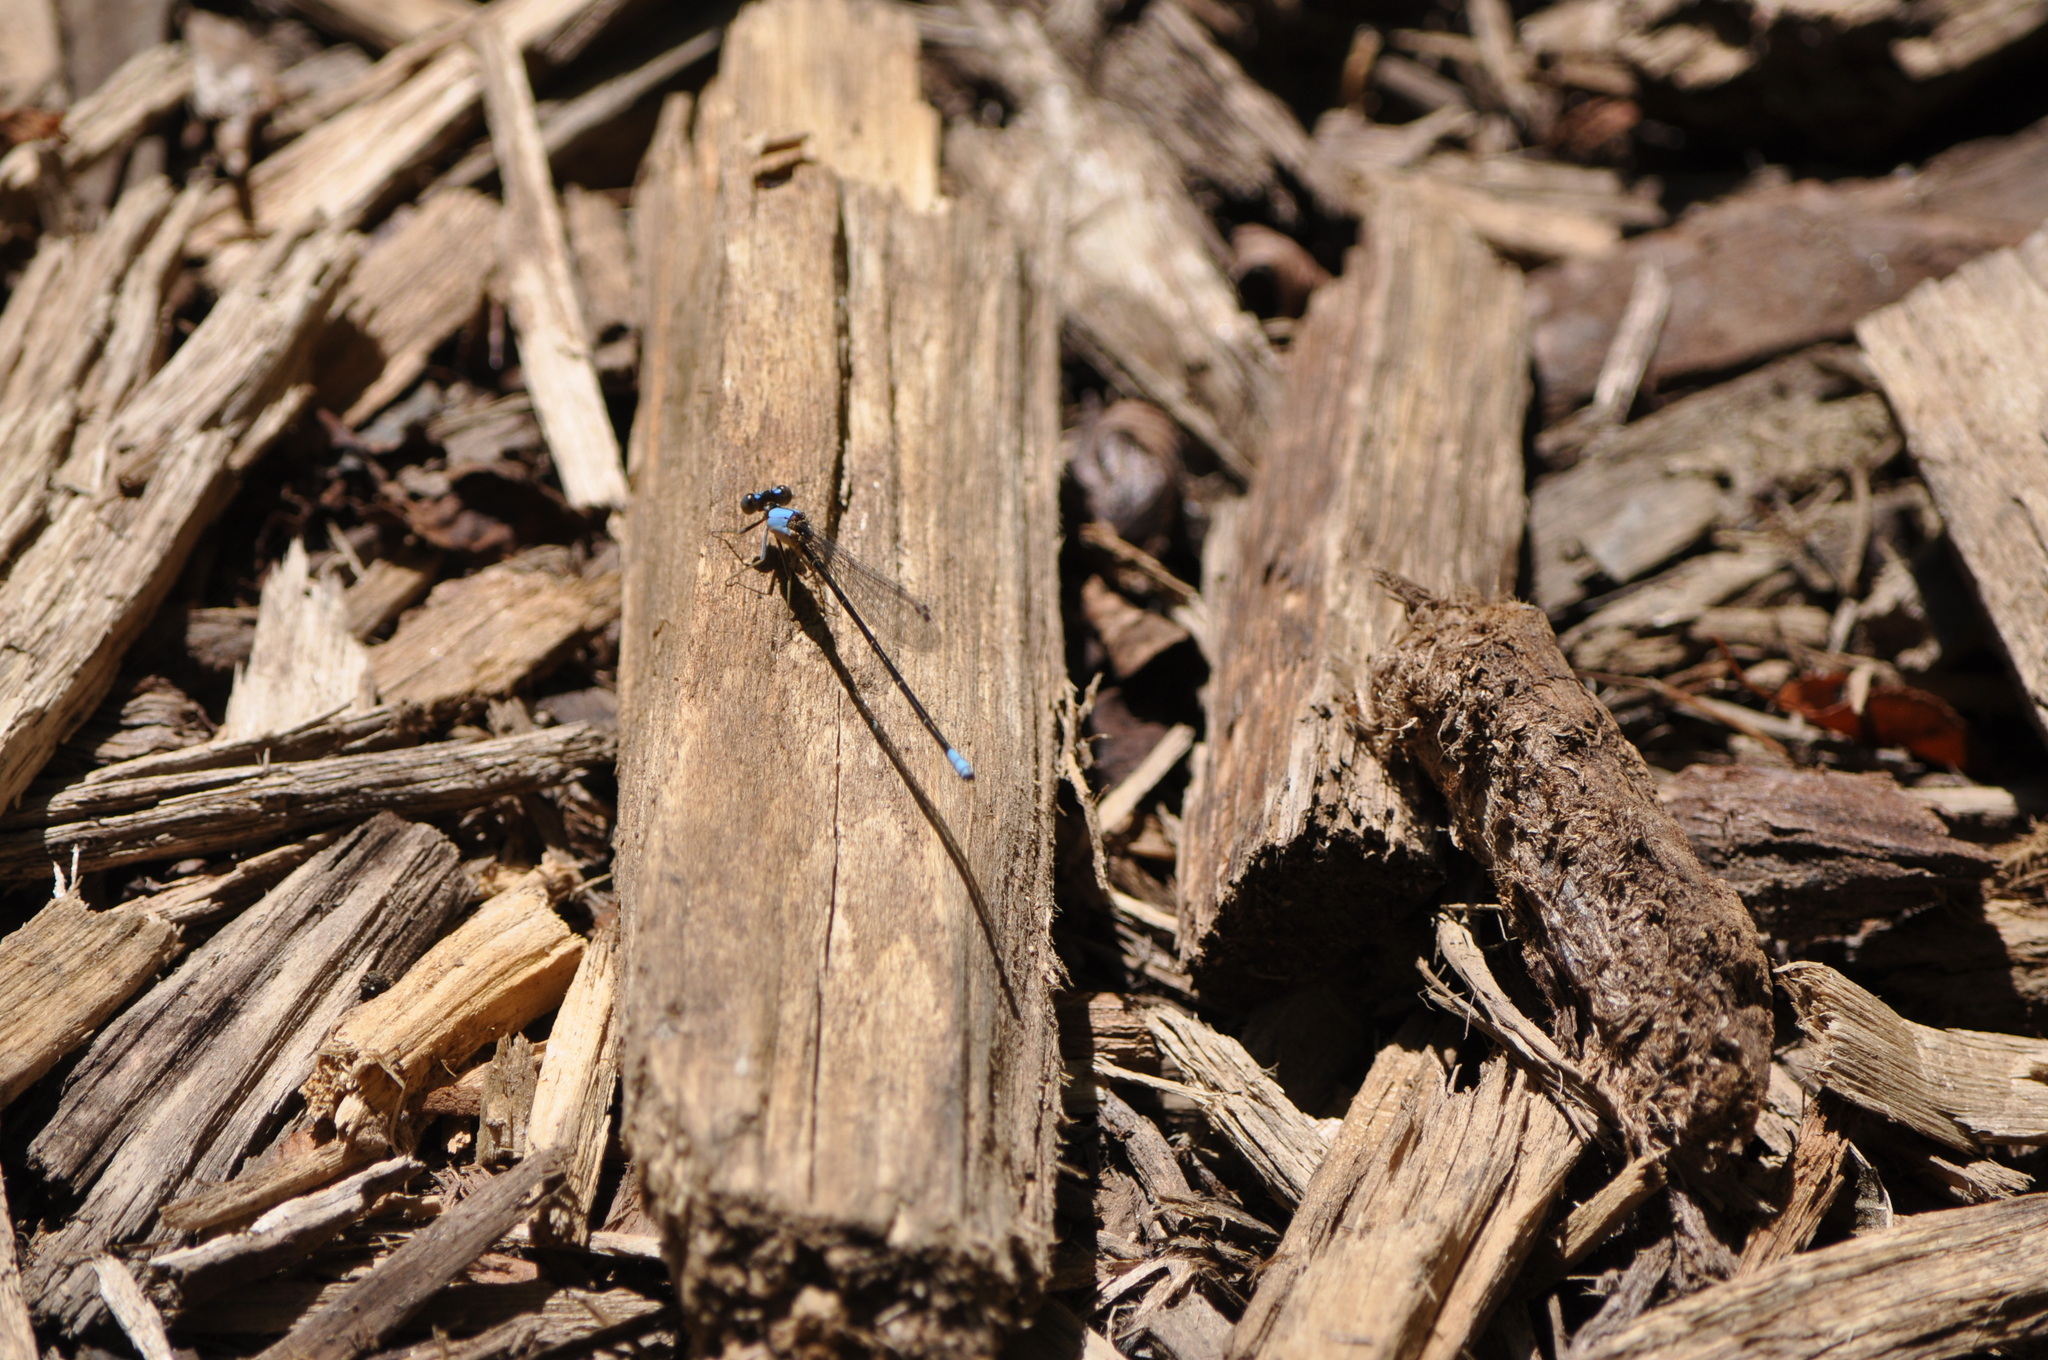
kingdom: Animalia
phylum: Arthropoda
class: Insecta
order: Odonata
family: Coenagrionidae
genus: Argia
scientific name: Argia apicalis
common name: Blue-fronted dancer
